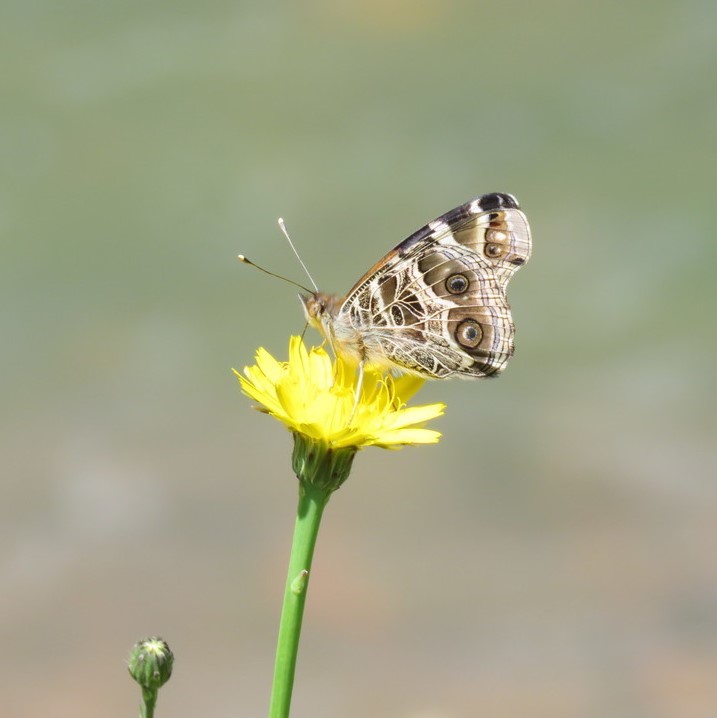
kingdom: Plantae
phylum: Tracheophyta
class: Magnoliopsida
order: Asterales
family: Asteraceae
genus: Hypochaeris
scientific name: Hypochaeris radicata
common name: Flatweed
